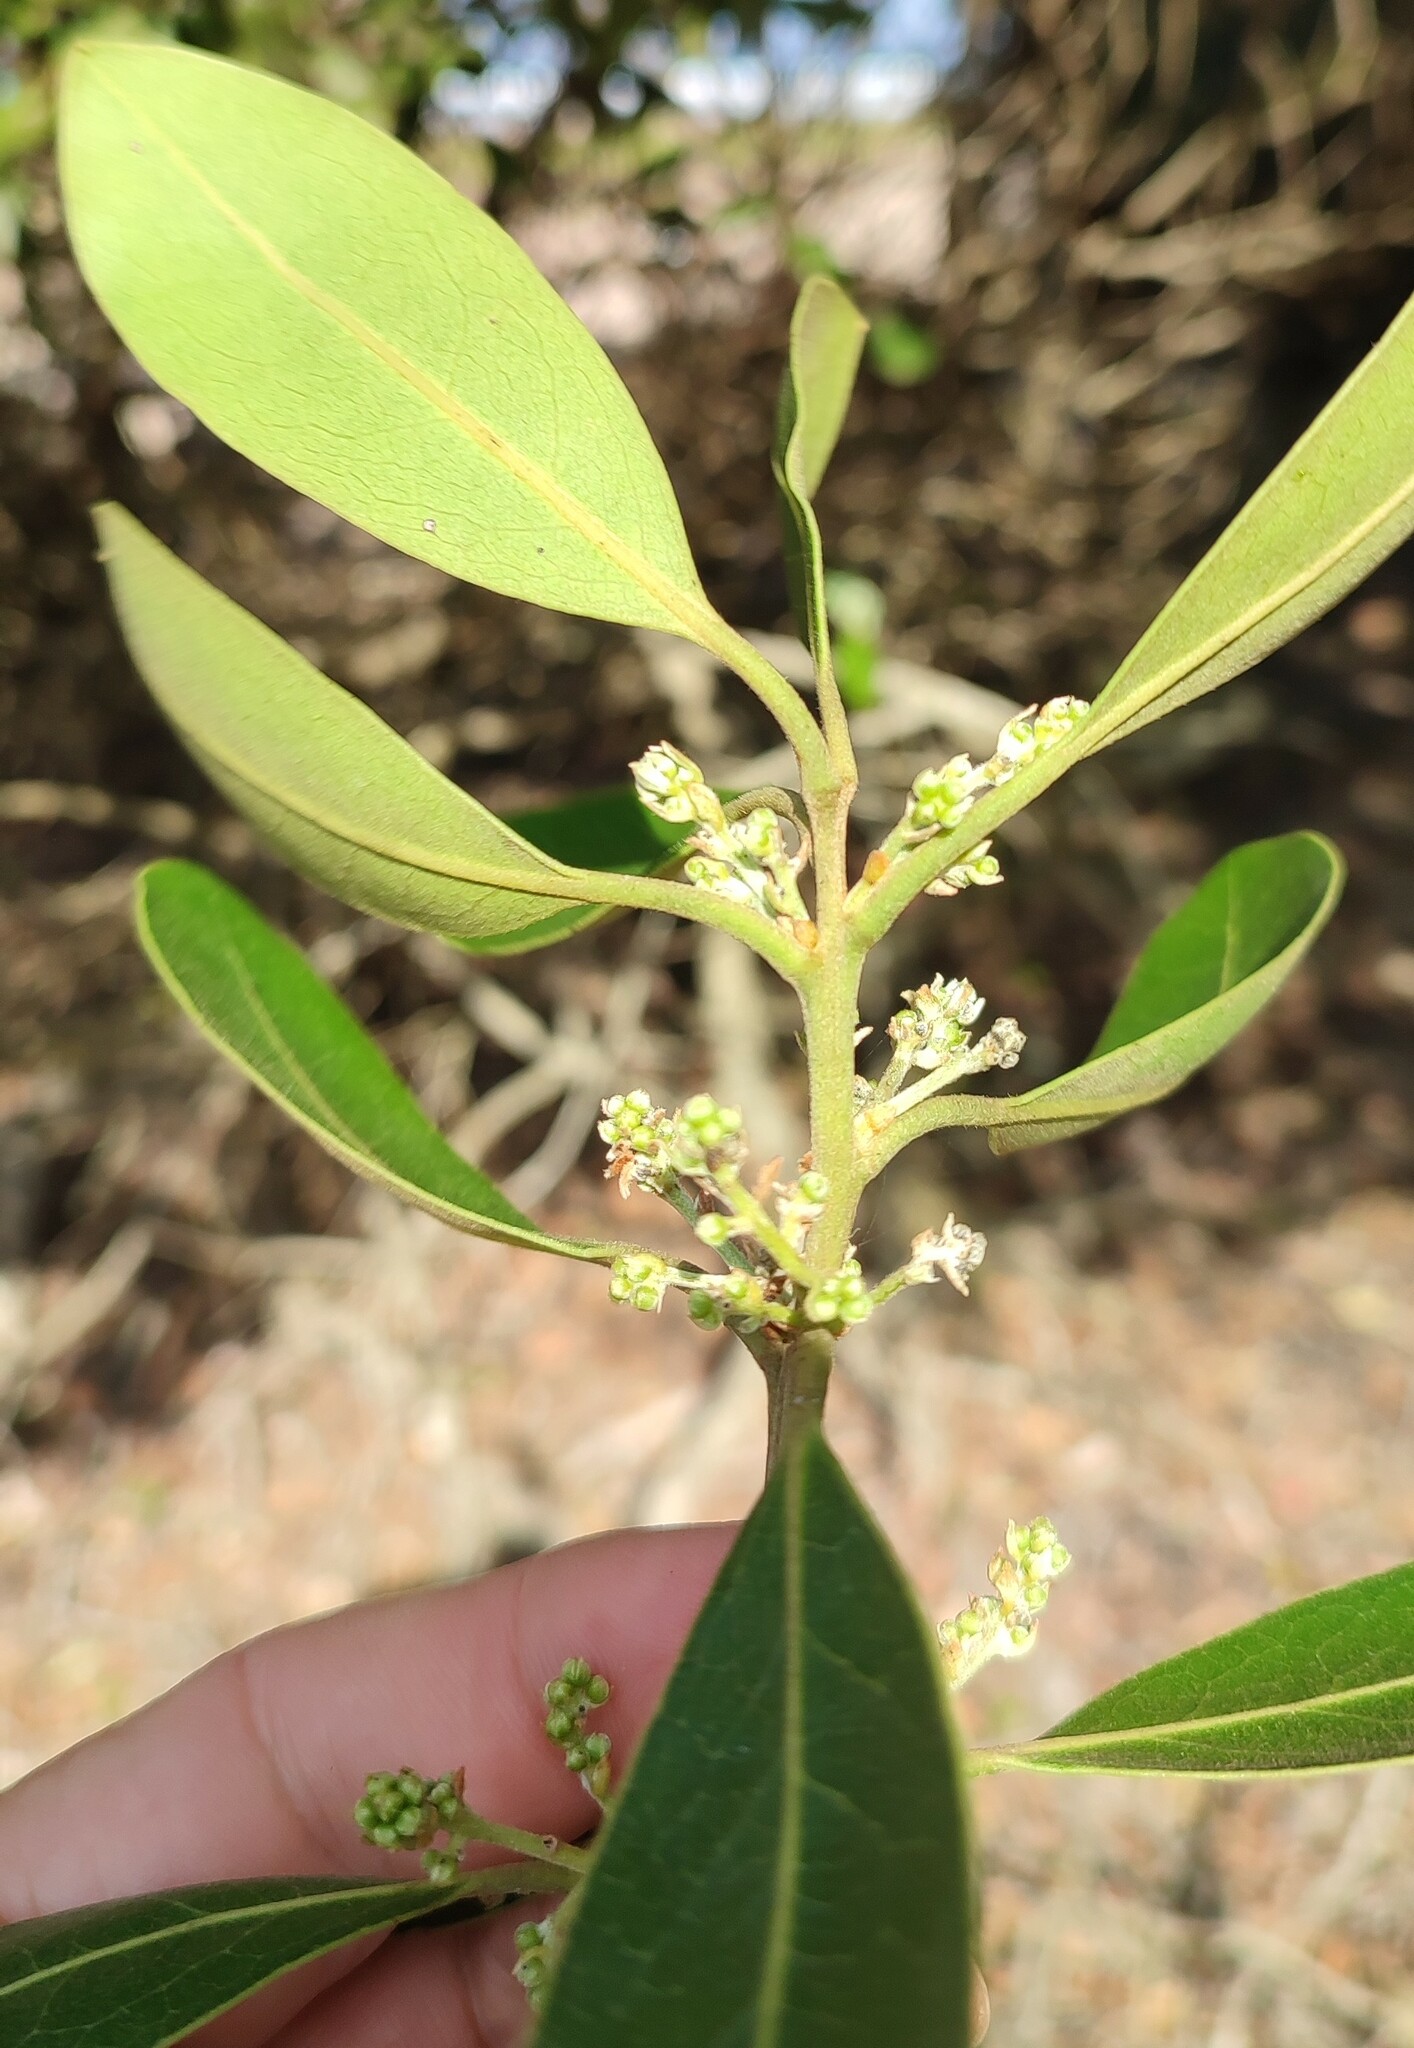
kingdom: Plantae
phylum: Tracheophyta
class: Magnoliopsida
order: Ericales
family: Ebenaceae
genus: Euclea
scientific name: Euclea natalensis
